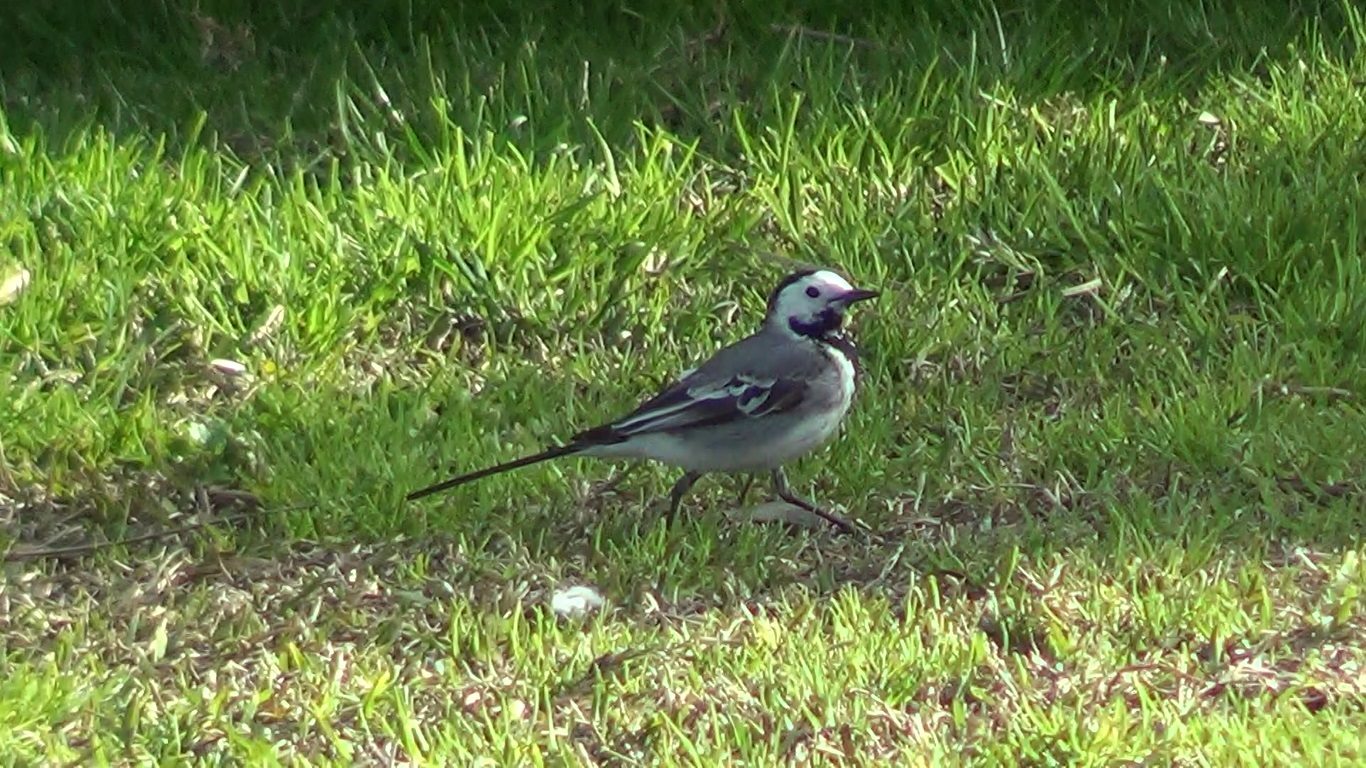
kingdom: Animalia
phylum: Chordata
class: Aves
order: Passeriformes
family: Motacillidae
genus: Motacilla
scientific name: Motacilla alba
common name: White wagtail
